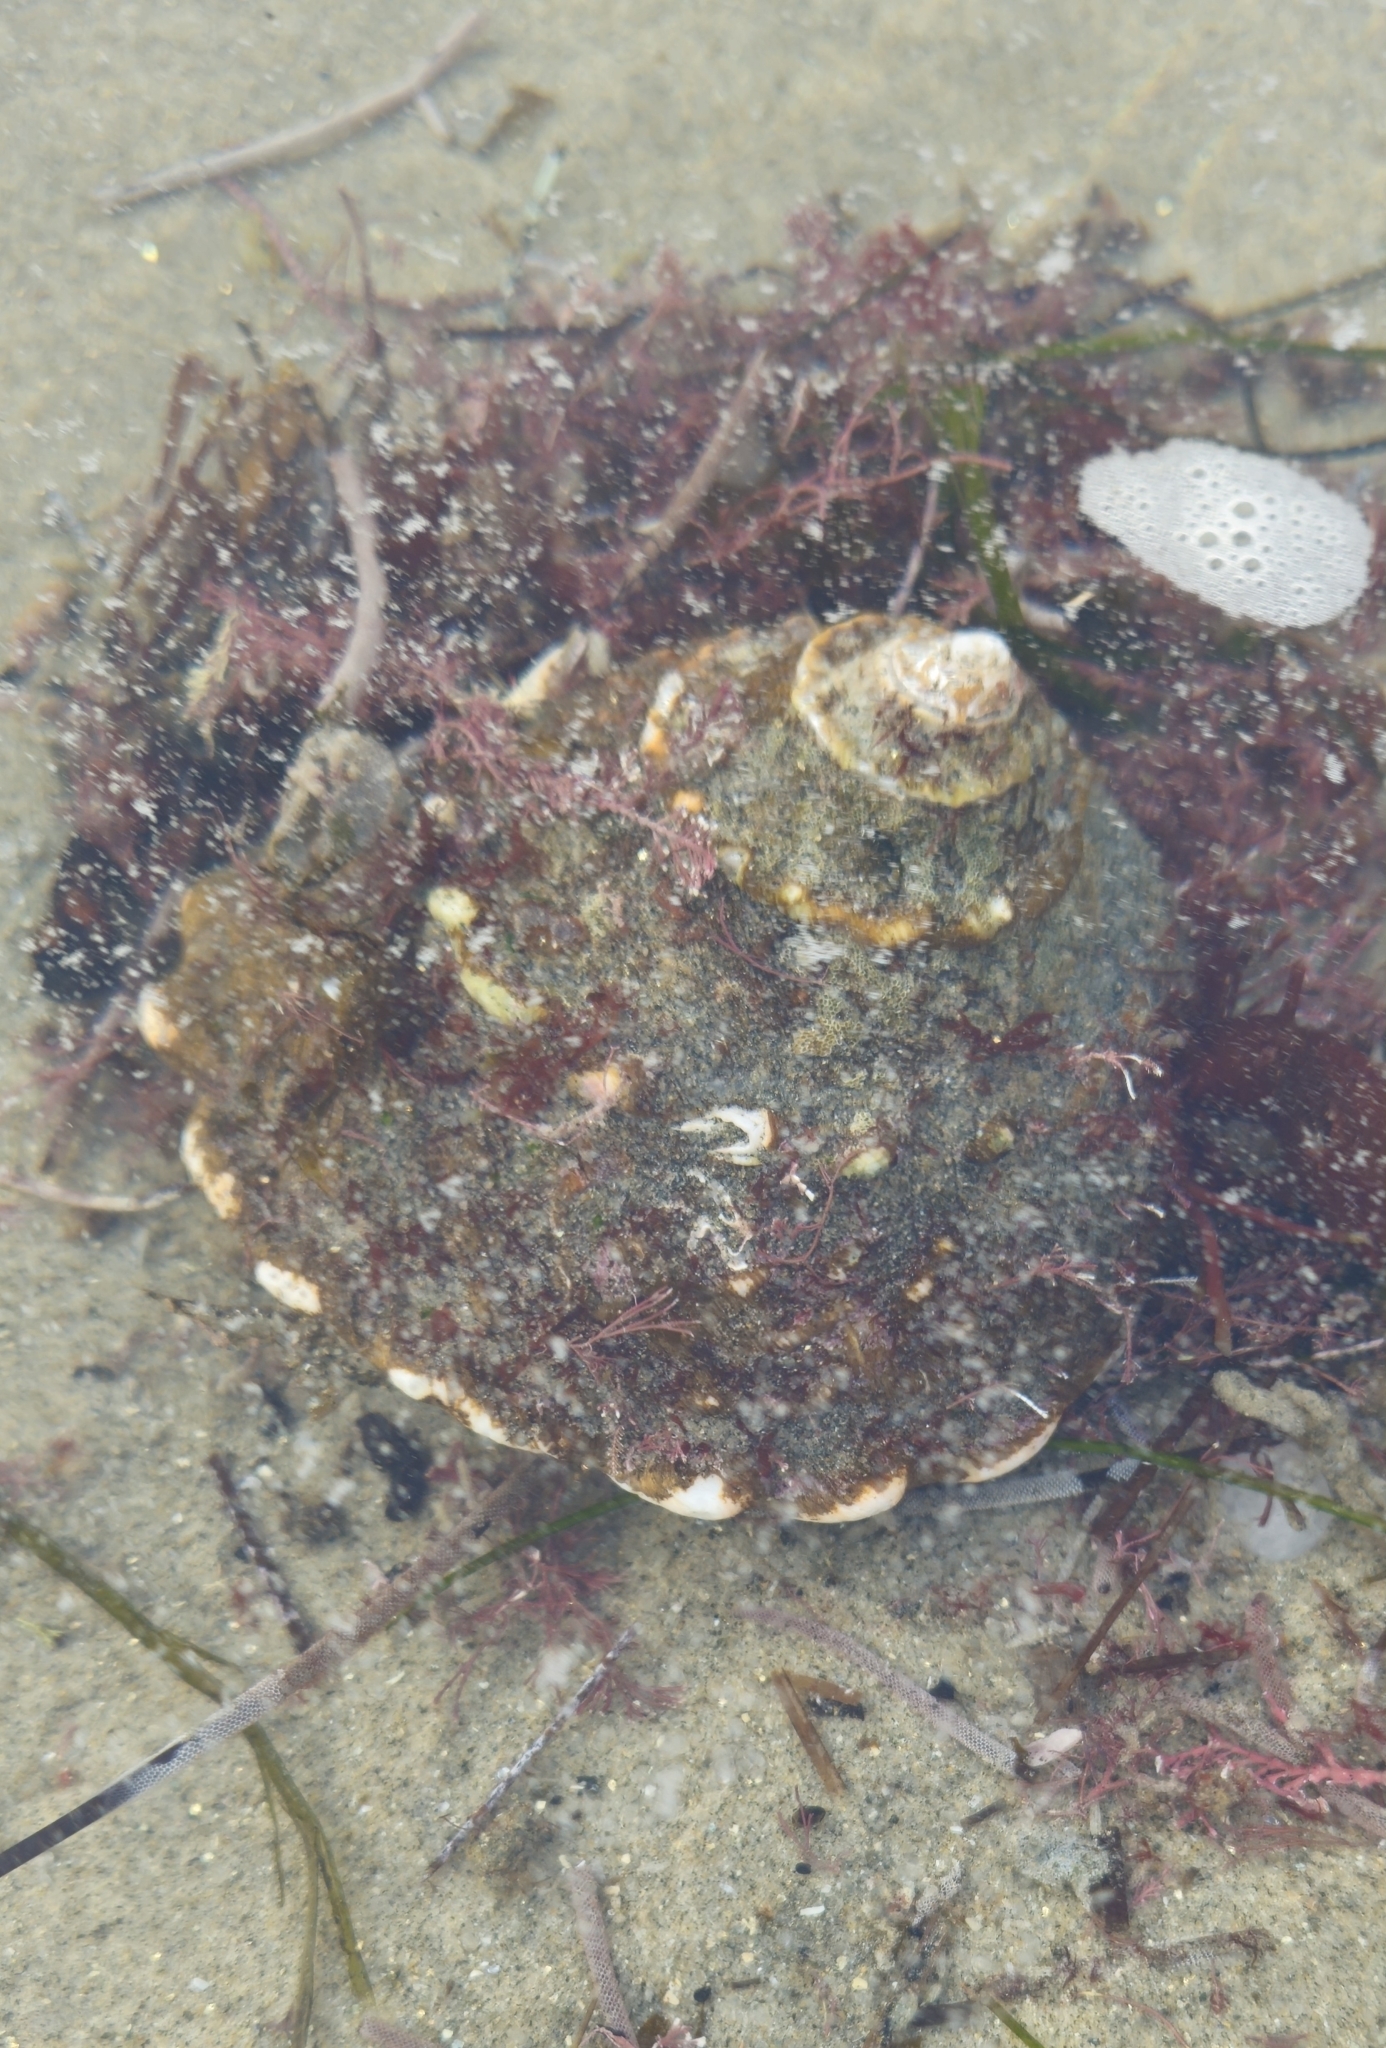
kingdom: Animalia
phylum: Mollusca
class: Gastropoda
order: Trochida
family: Turbinidae
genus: Megastraea
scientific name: Megastraea undosa
